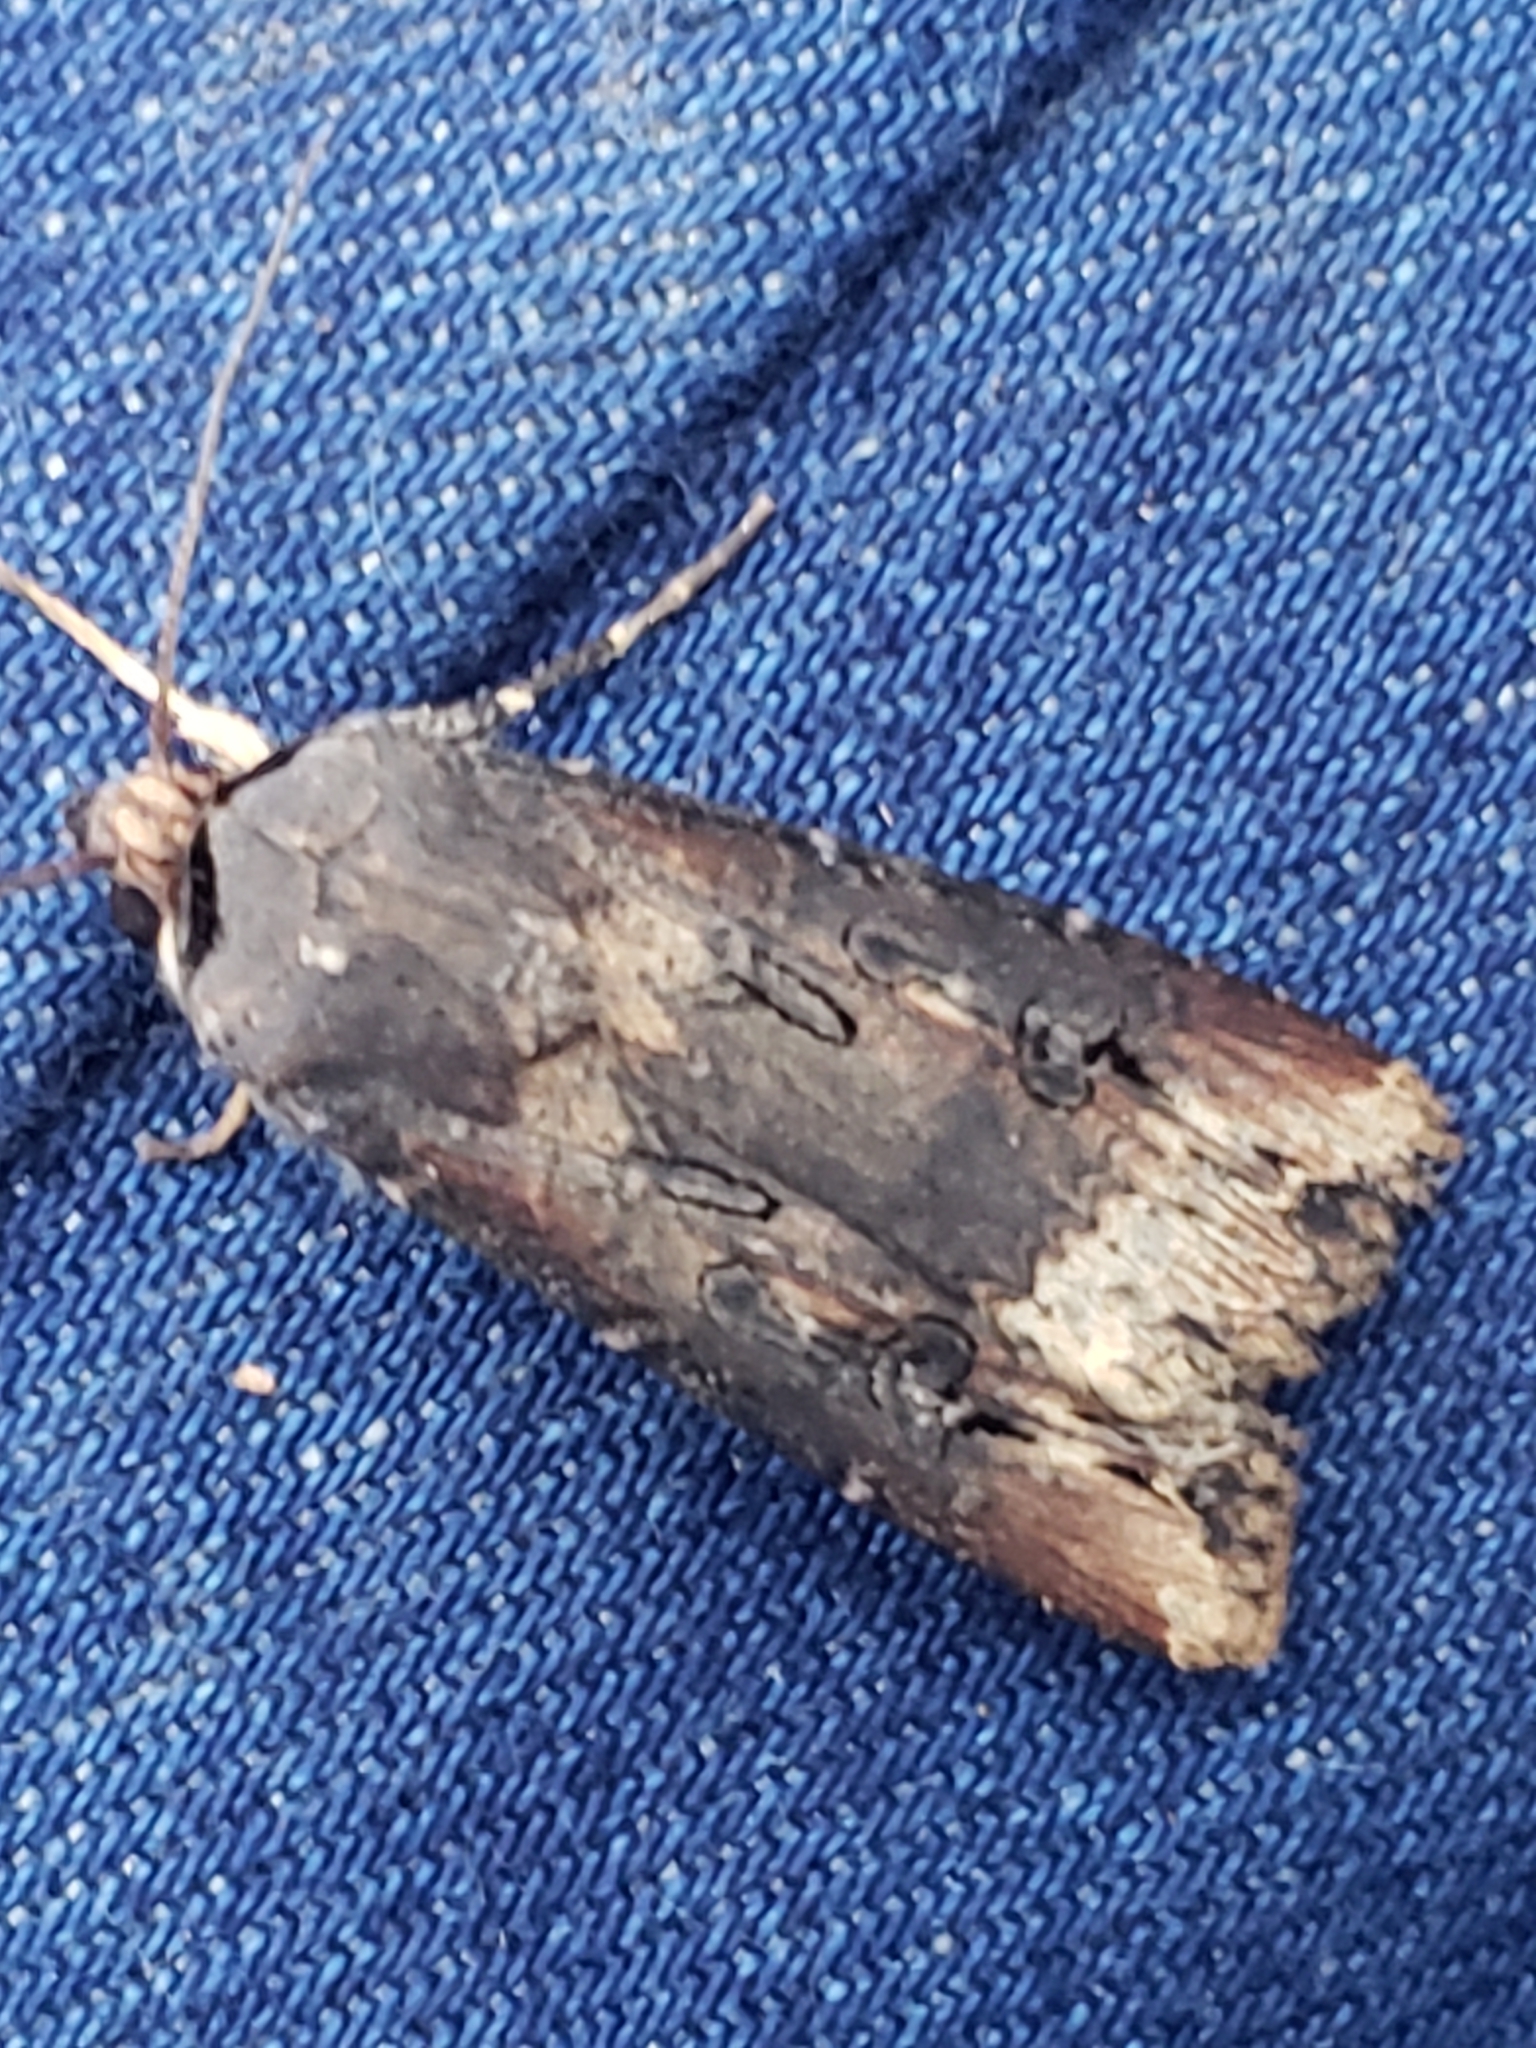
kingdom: Animalia
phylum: Arthropoda
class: Insecta
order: Lepidoptera
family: Noctuidae
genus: Agrotis
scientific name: Agrotis ipsilon
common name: Dark sword-grass
